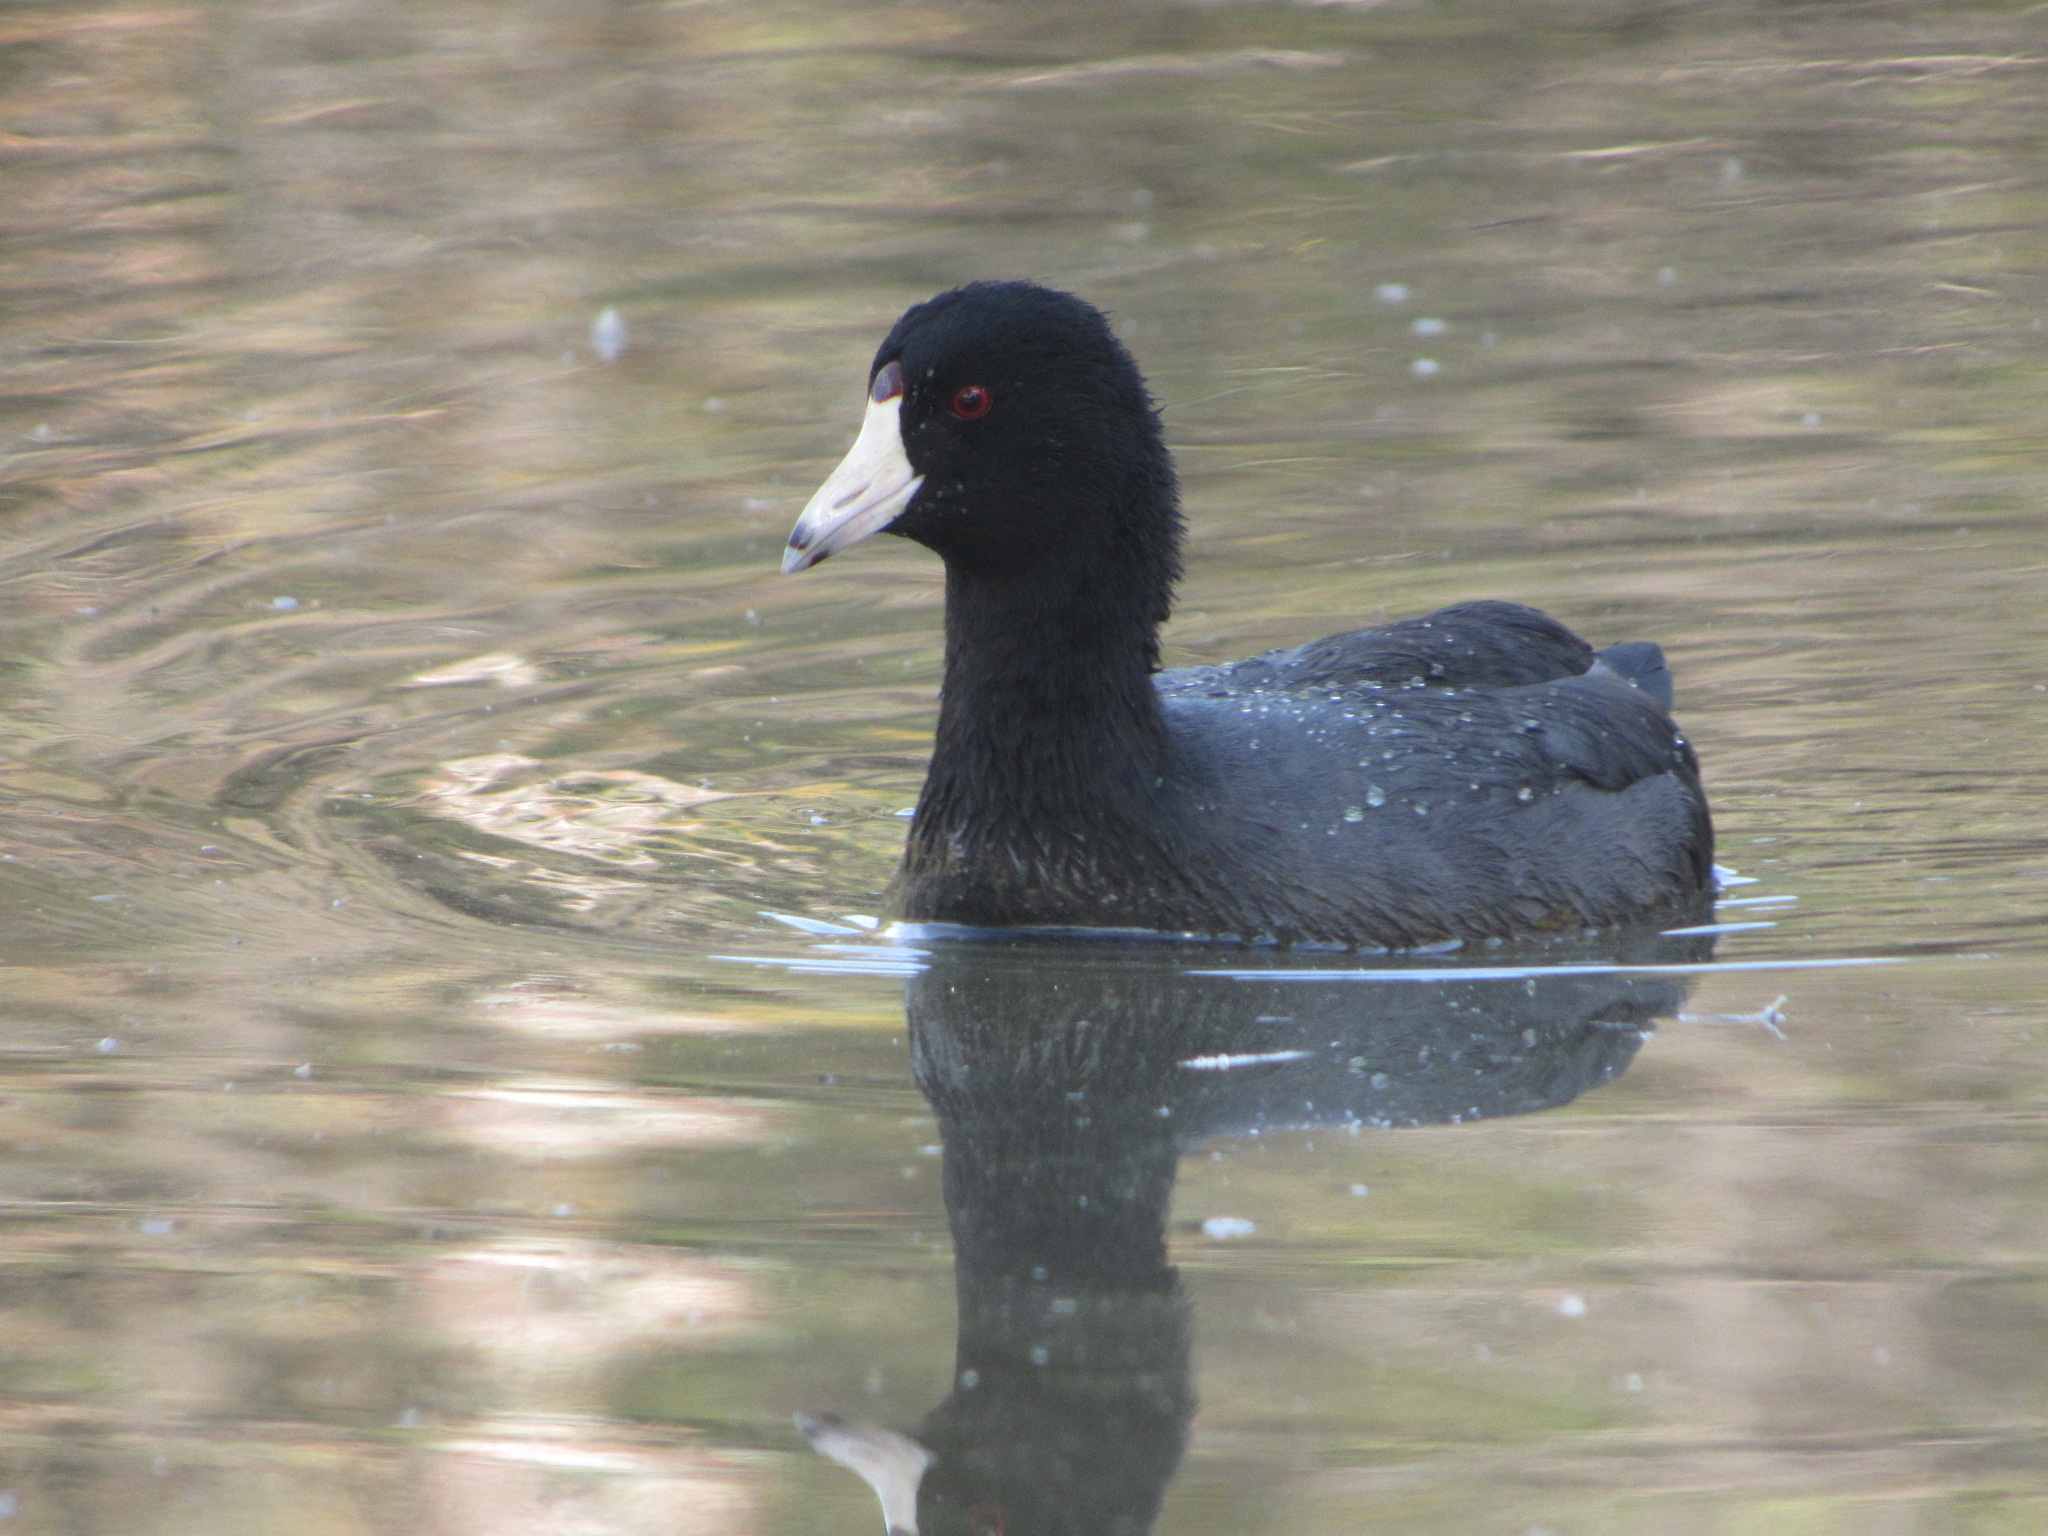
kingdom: Animalia
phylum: Chordata
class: Aves
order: Gruiformes
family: Rallidae
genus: Fulica
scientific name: Fulica americana
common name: American coot
